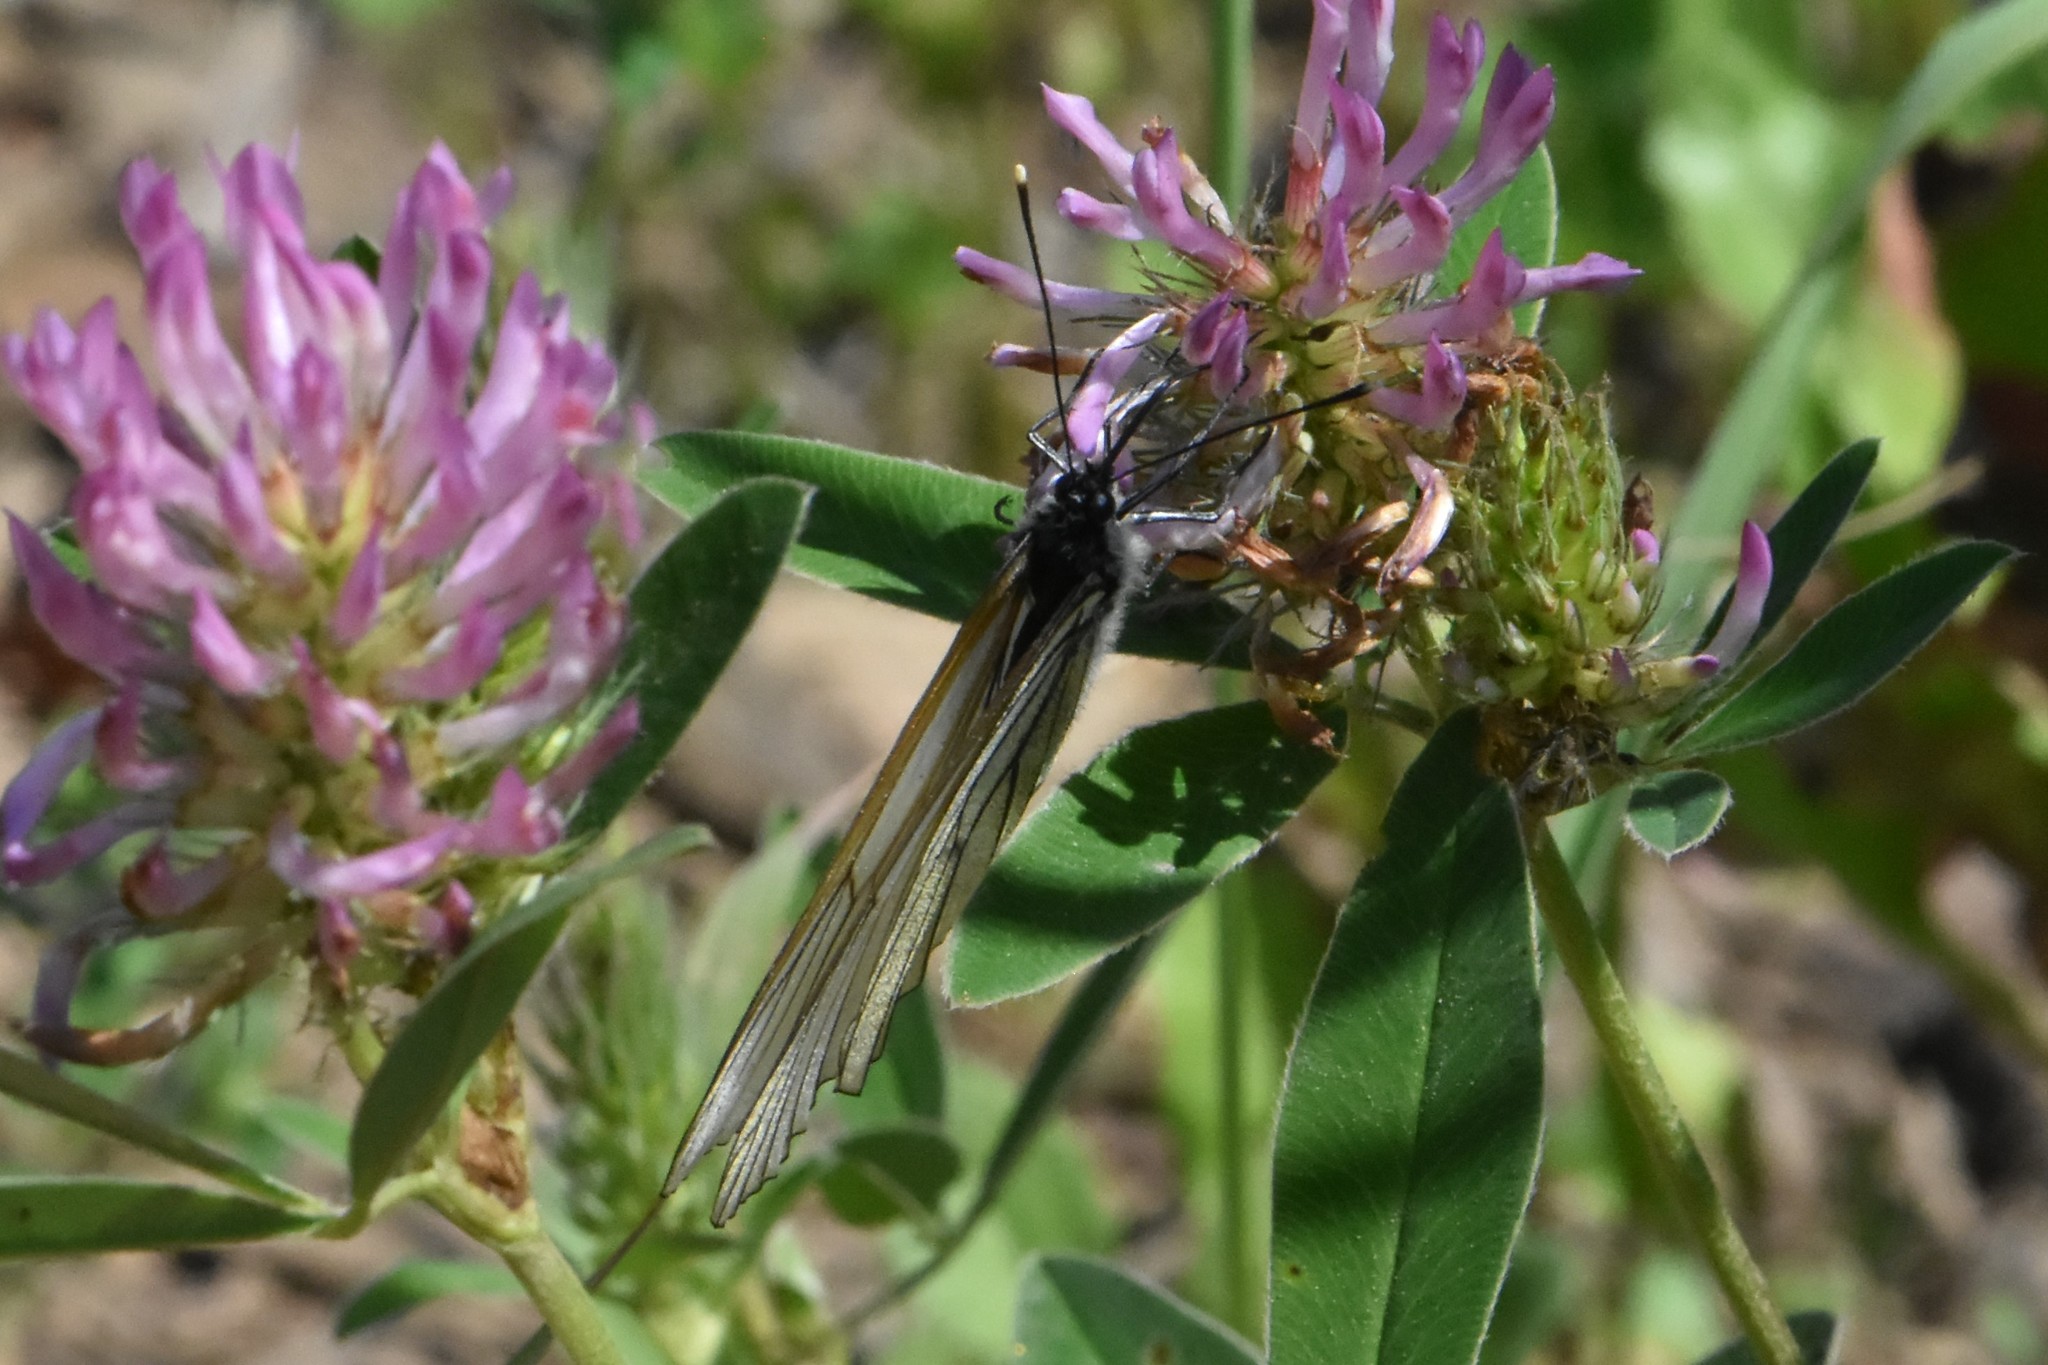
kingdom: Animalia
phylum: Arthropoda
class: Insecta
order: Lepidoptera
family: Pieridae
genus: Aporia
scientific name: Aporia crataegi
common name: Black-veined white
